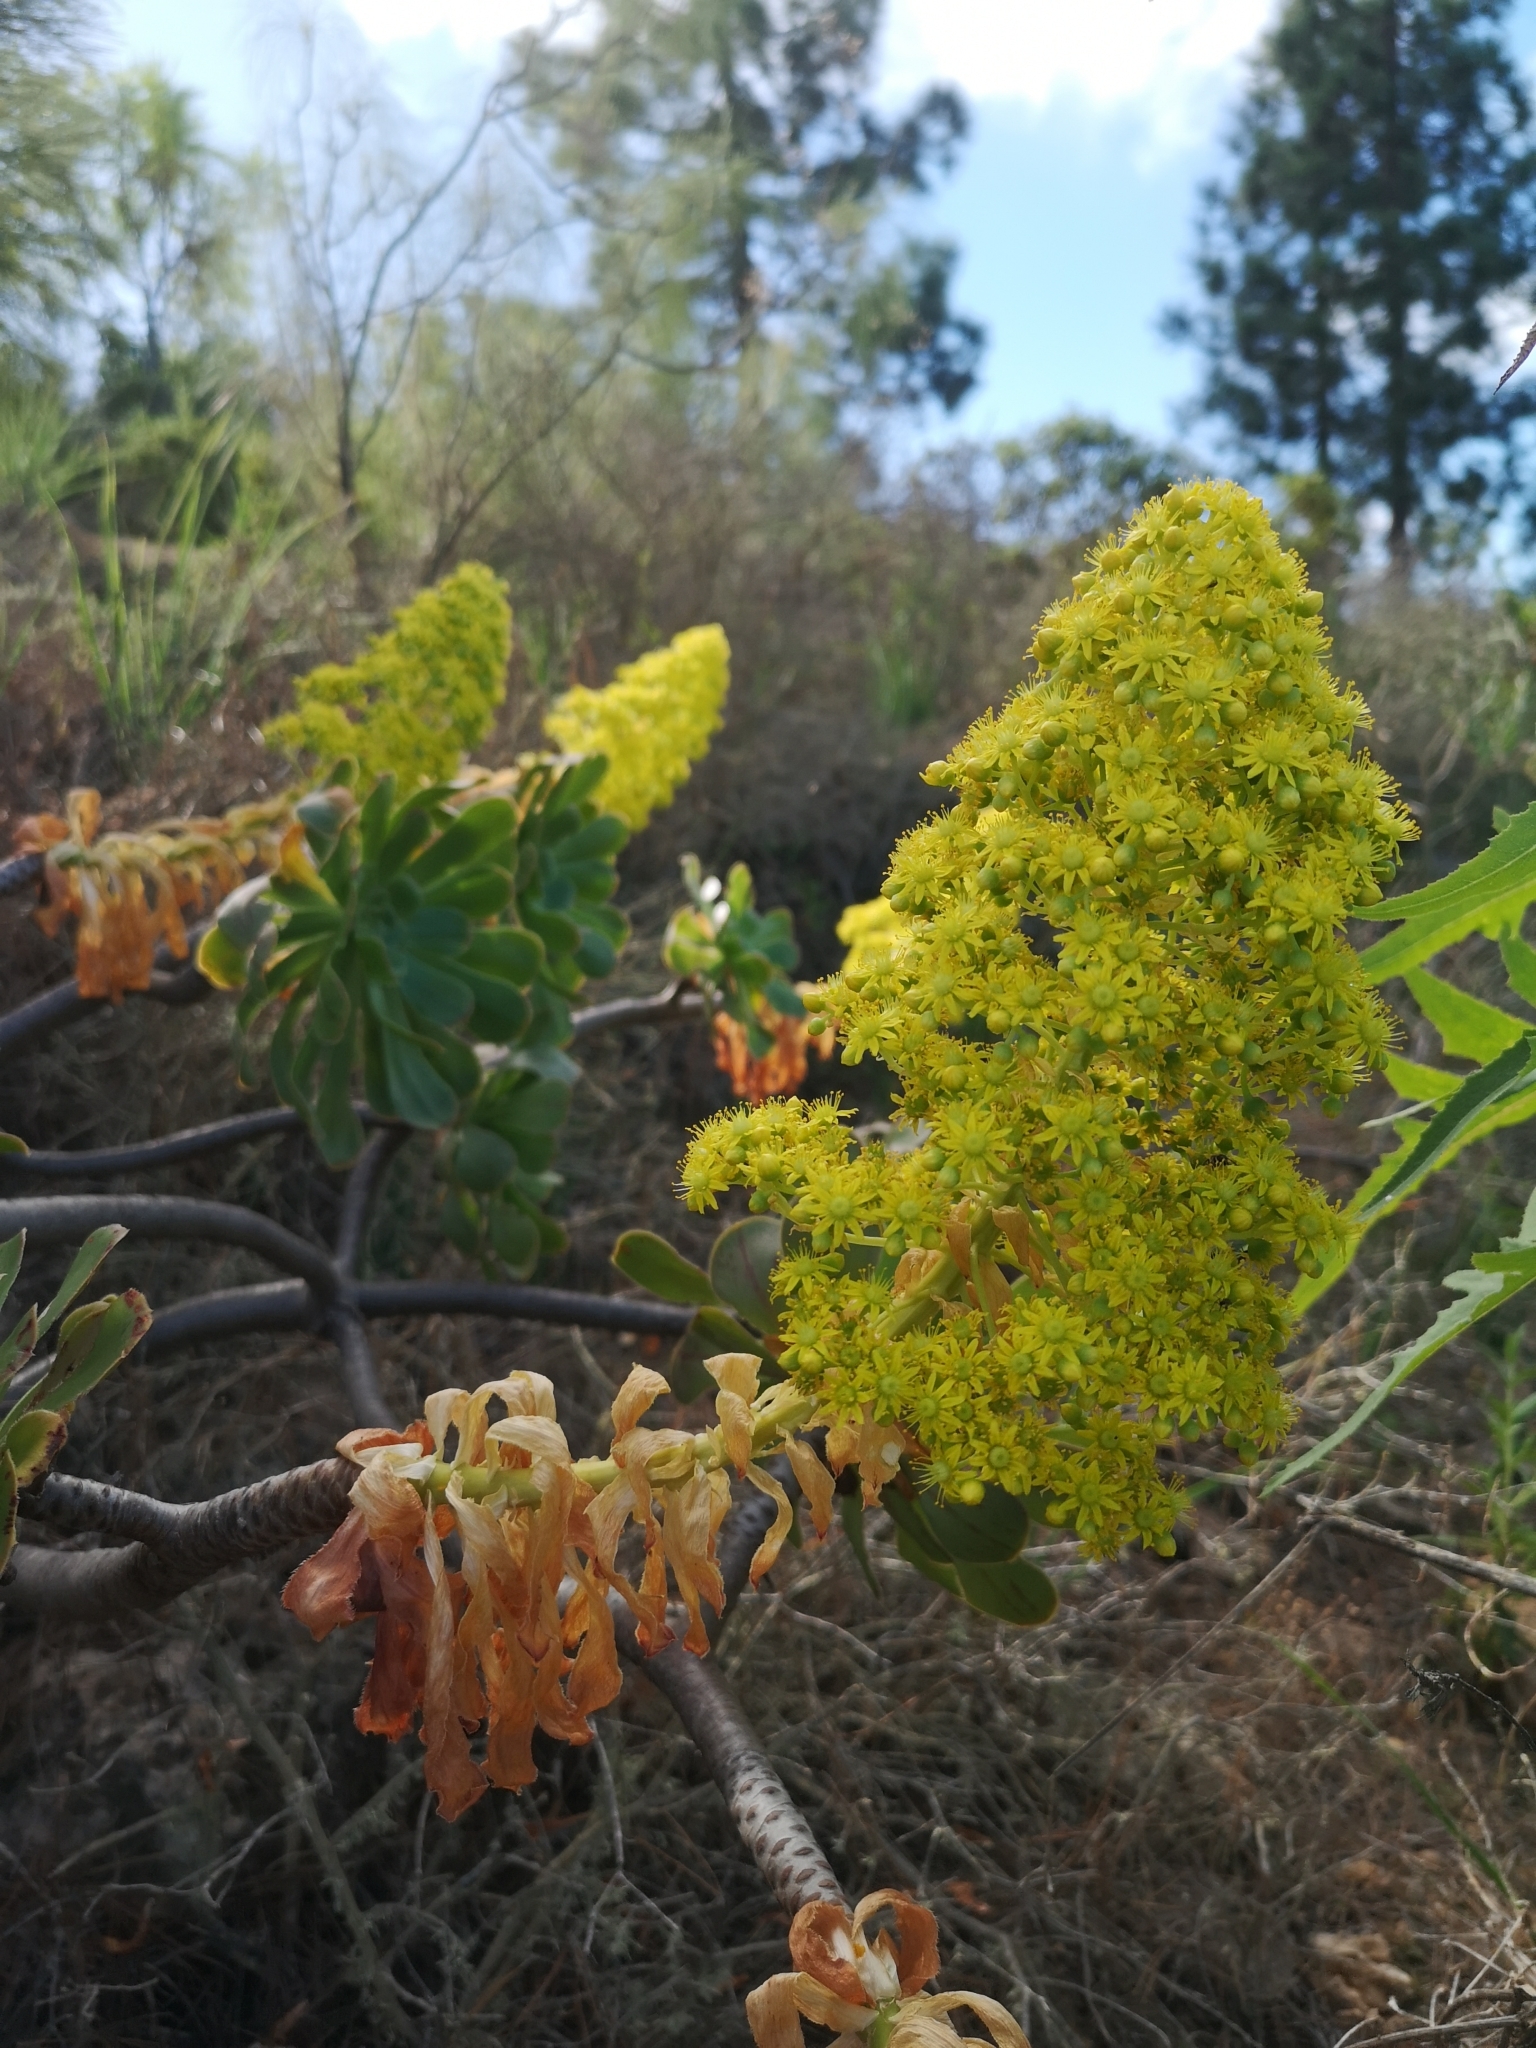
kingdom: Plantae
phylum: Tracheophyta
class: Magnoliopsida
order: Saxifragales
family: Crassulaceae
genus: Aeonium
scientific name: Aeonium arboreum
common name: Tree aeonium
